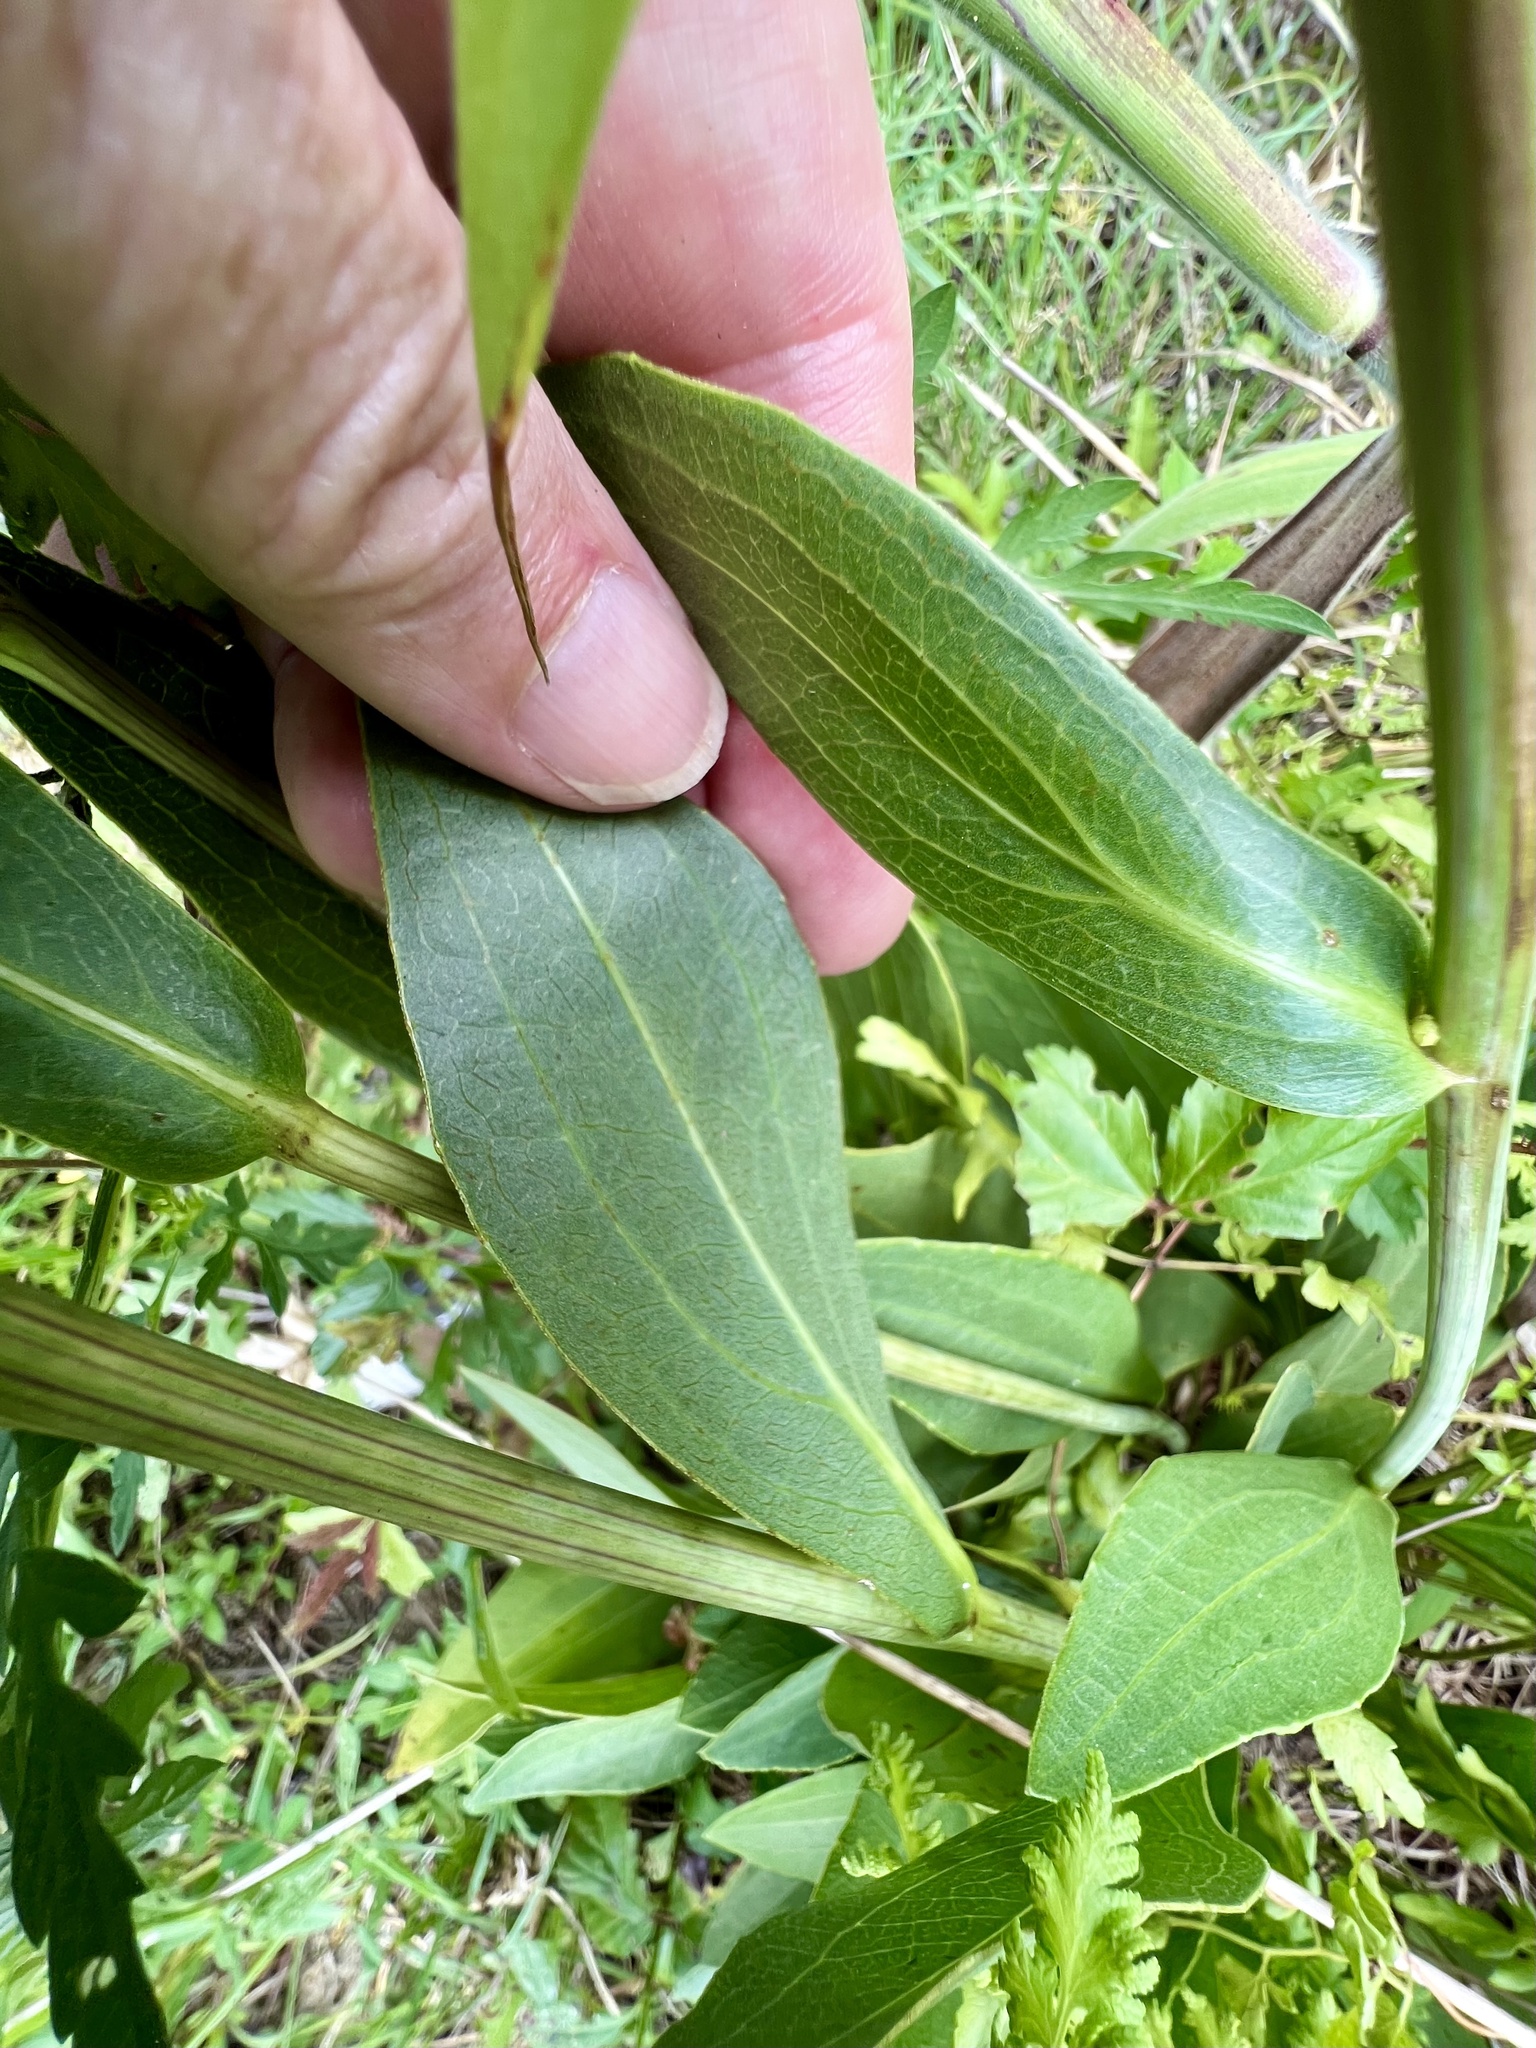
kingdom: Plantae
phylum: Tracheophyta
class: Magnoliopsida
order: Asterales
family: Asteraceae
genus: Rudbeckia
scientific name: Rudbeckia texana
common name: Texas coneflower
